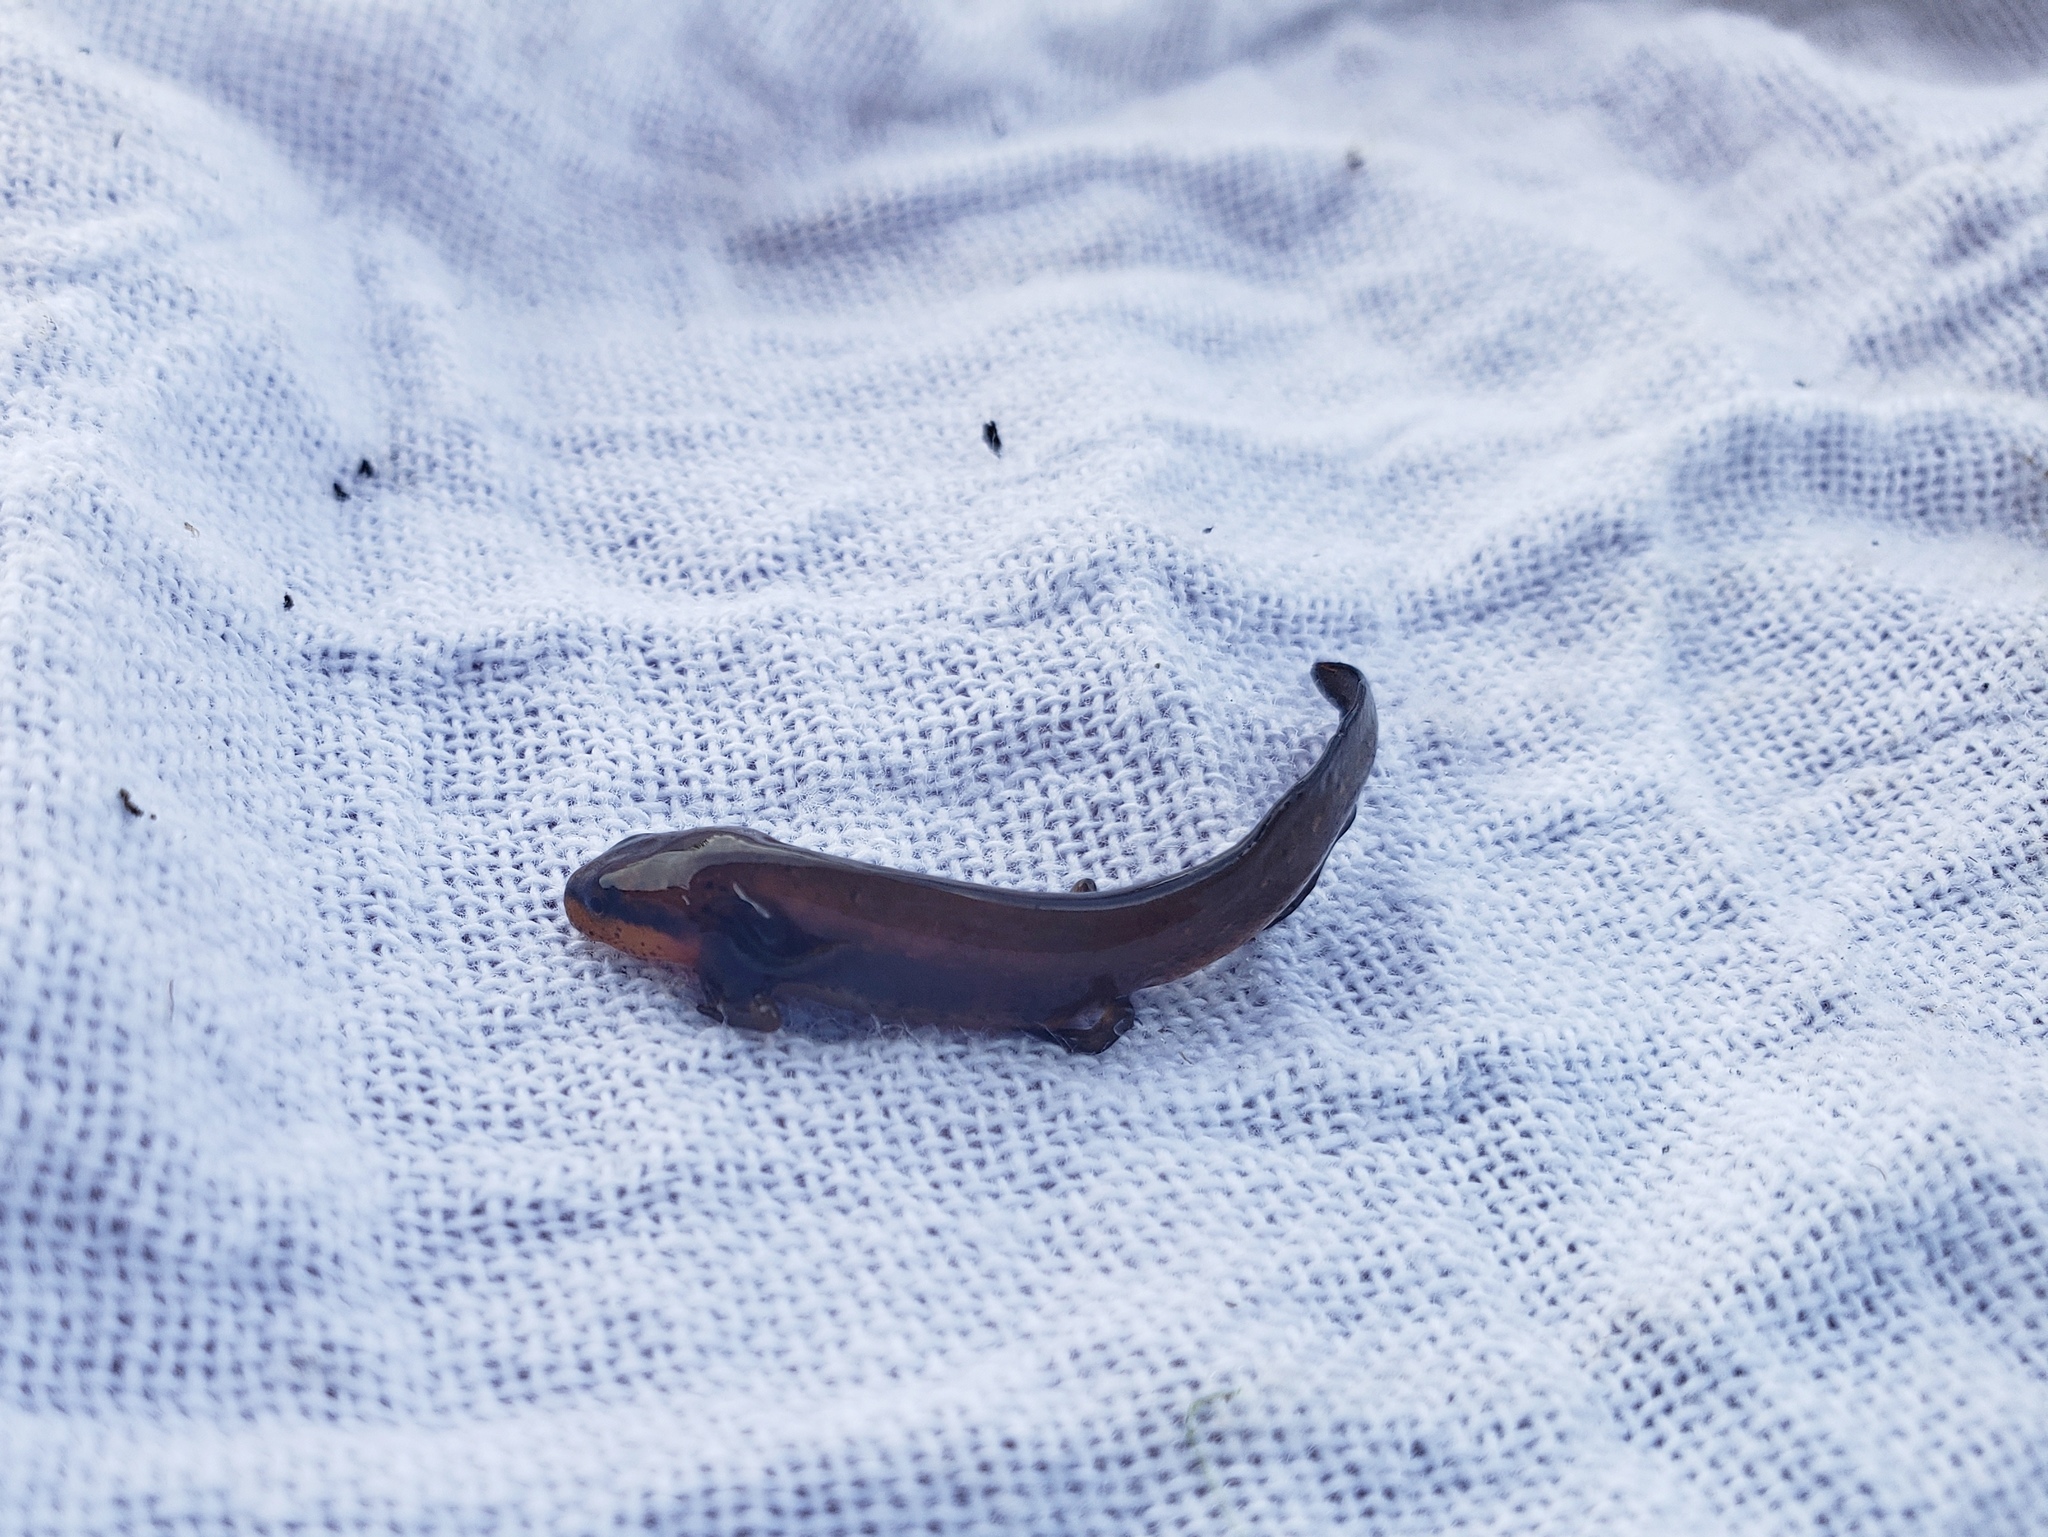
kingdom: Animalia
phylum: Chordata
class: Amphibia
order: Caudata
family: Salamandridae
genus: Notophthalmus
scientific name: Notophthalmus viridescens
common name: Eastern newt
